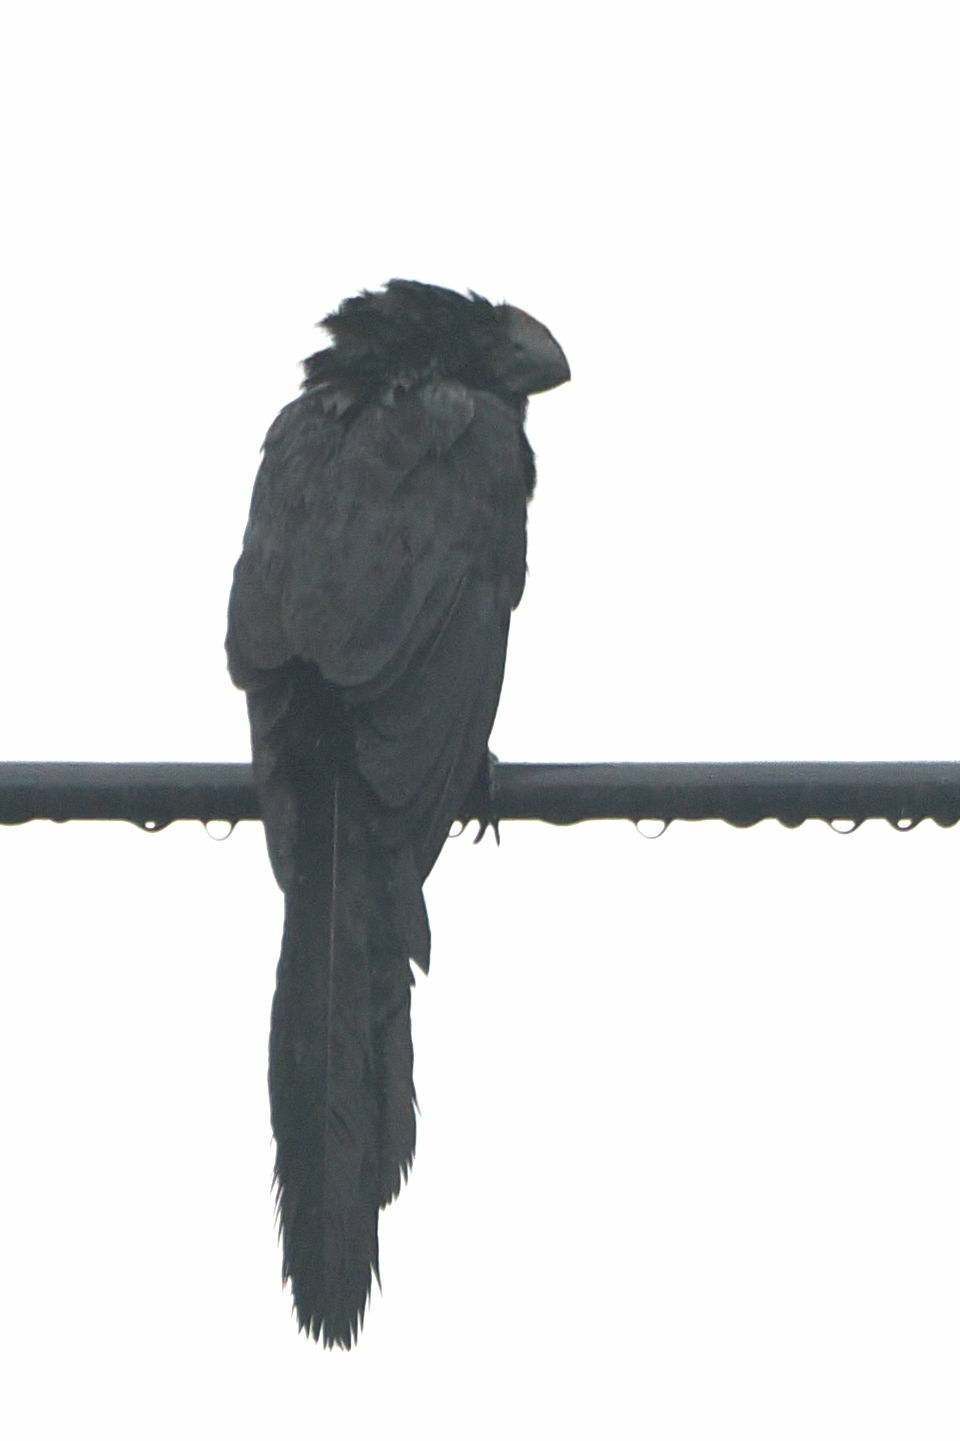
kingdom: Animalia
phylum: Chordata
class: Aves
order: Cuculiformes
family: Cuculidae
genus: Crotophaga
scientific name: Crotophaga ani
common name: Smooth-billed ani
